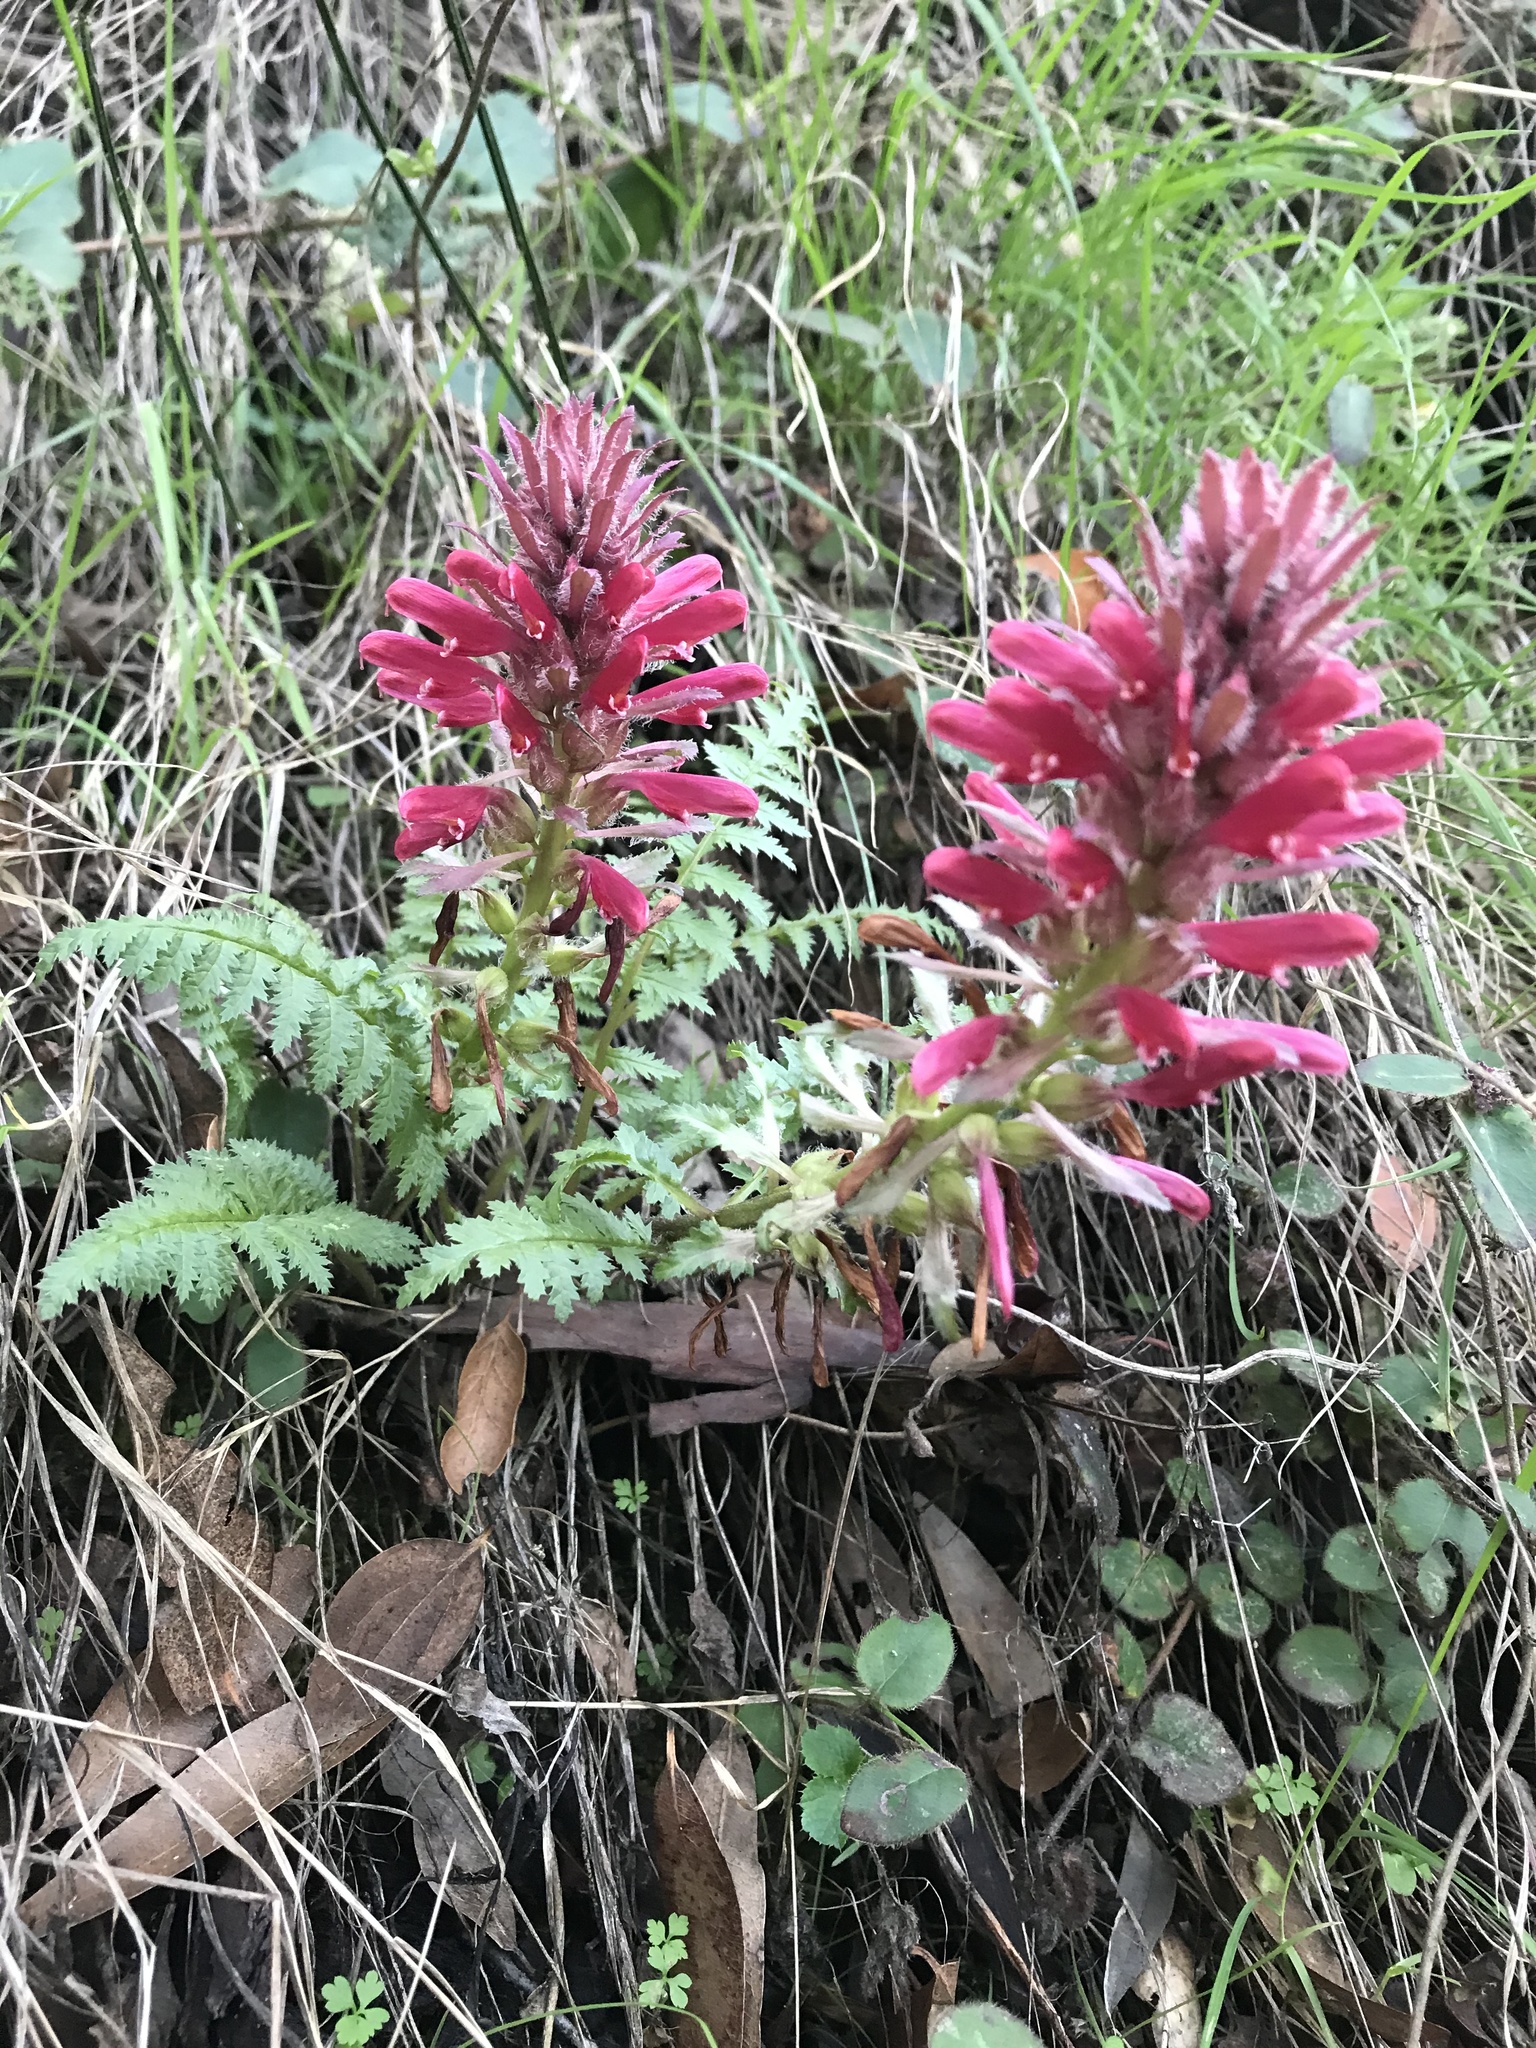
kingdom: Plantae
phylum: Tracheophyta
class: Magnoliopsida
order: Lamiales
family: Orobanchaceae
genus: Pedicularis
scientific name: Pedicularis densiflora
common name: Indian warrior
